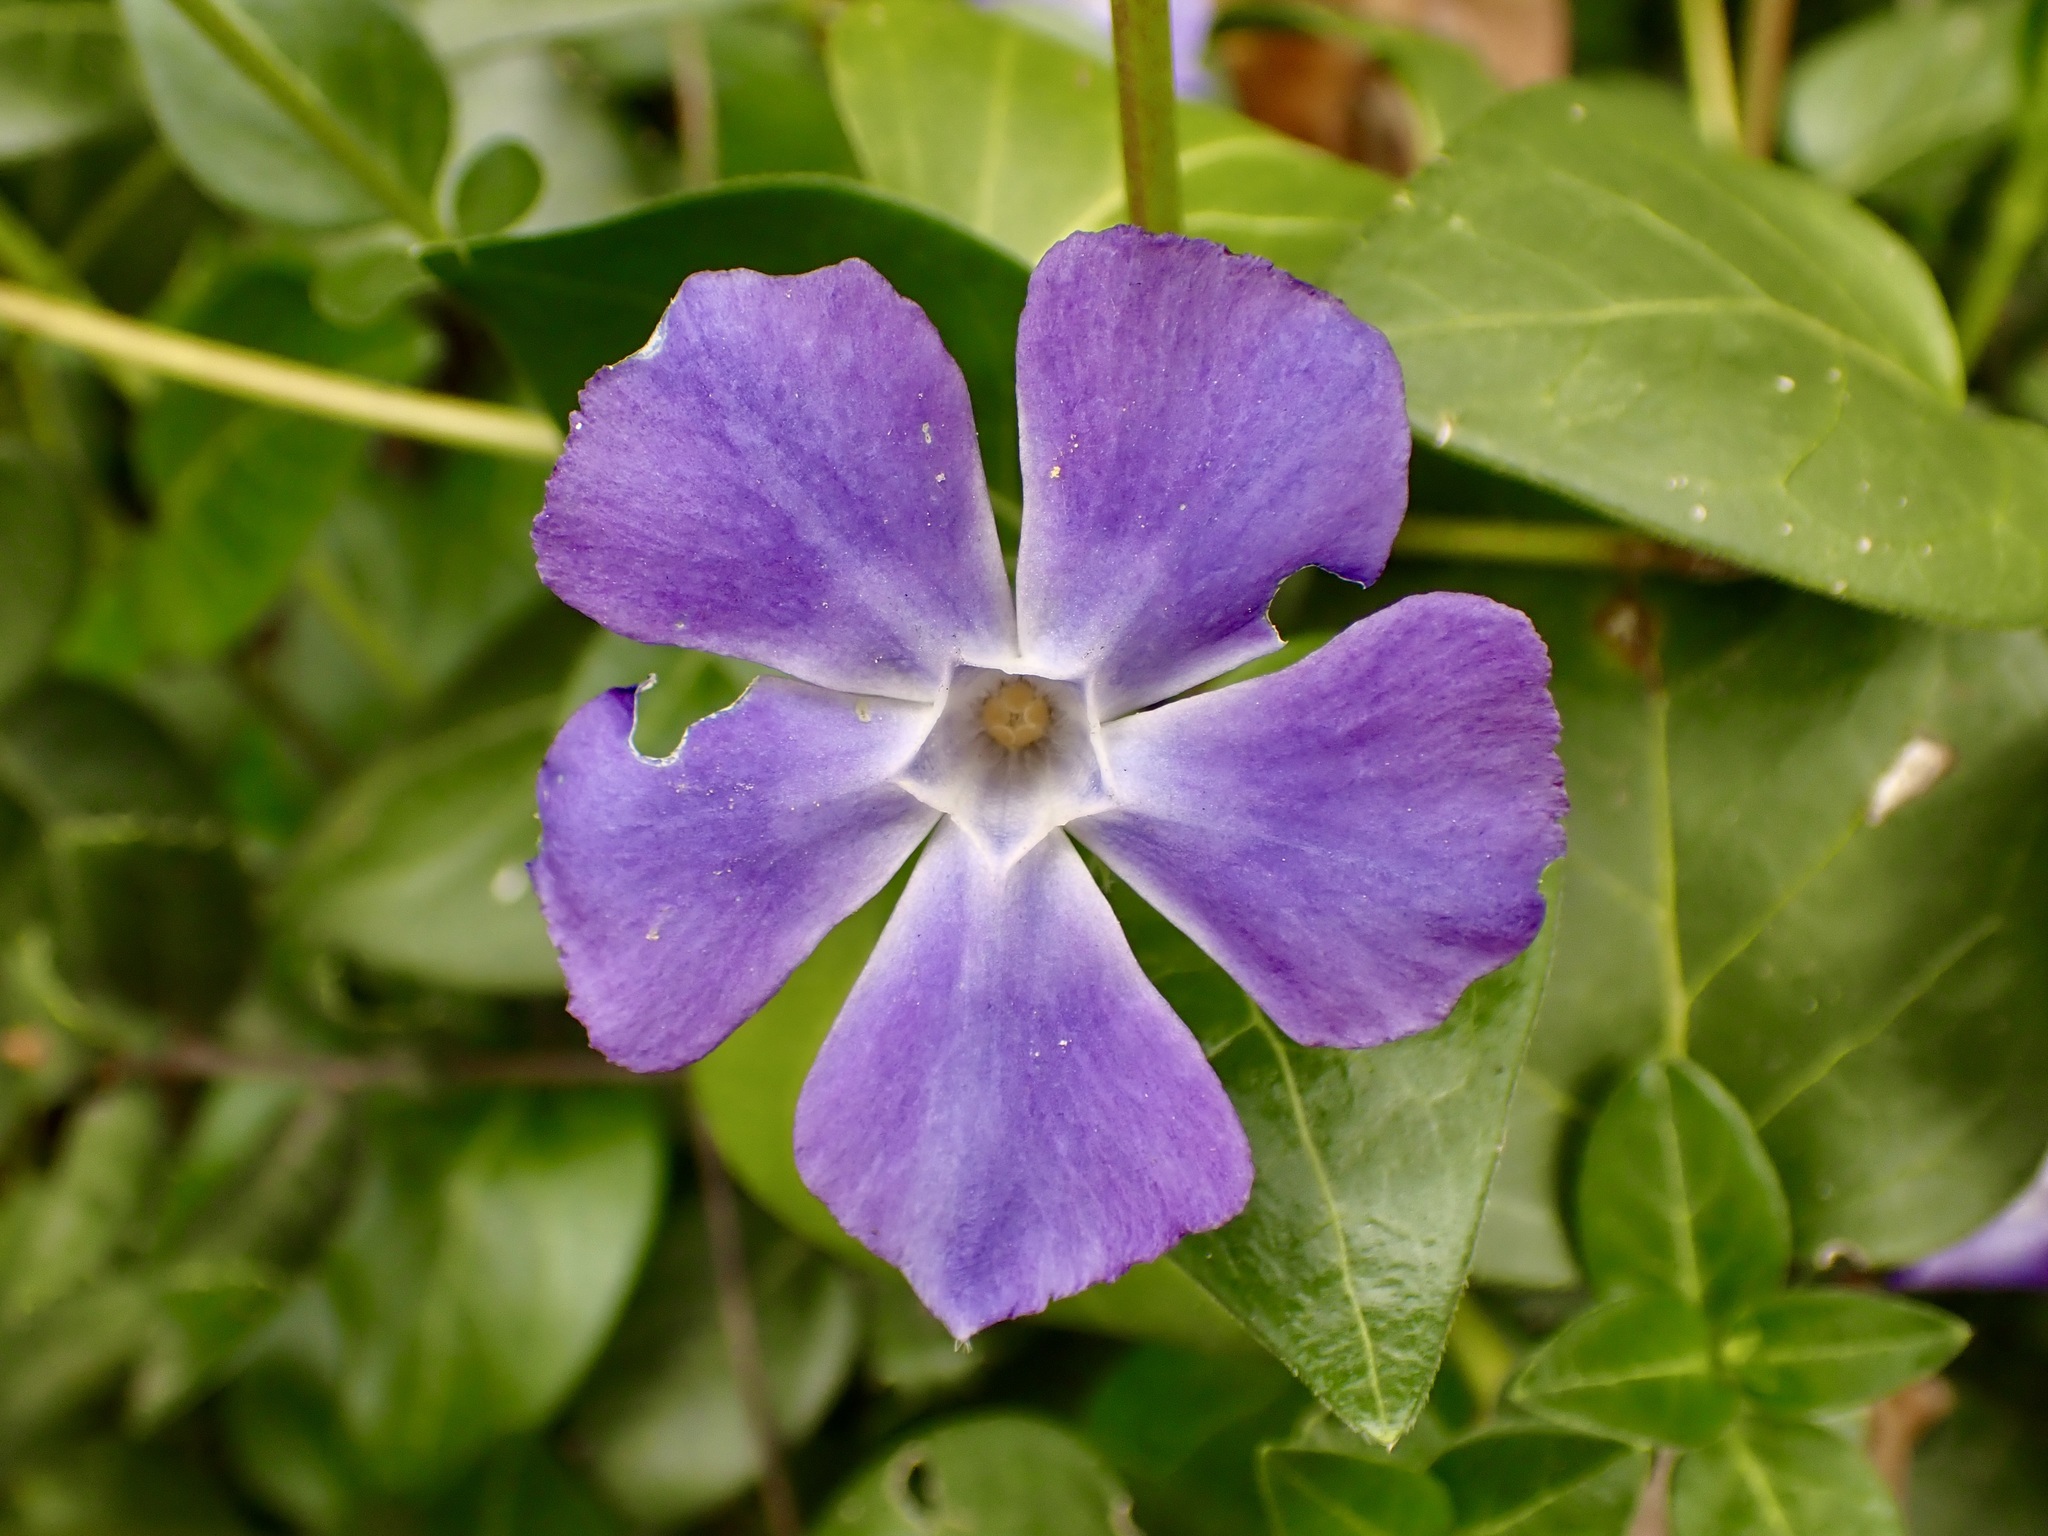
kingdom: Plantae
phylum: Tracheophyta
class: Magnoliopsida
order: Gentianales
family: Apocynaceae
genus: Vinca
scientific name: Vinca major
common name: Greater periwinkle
